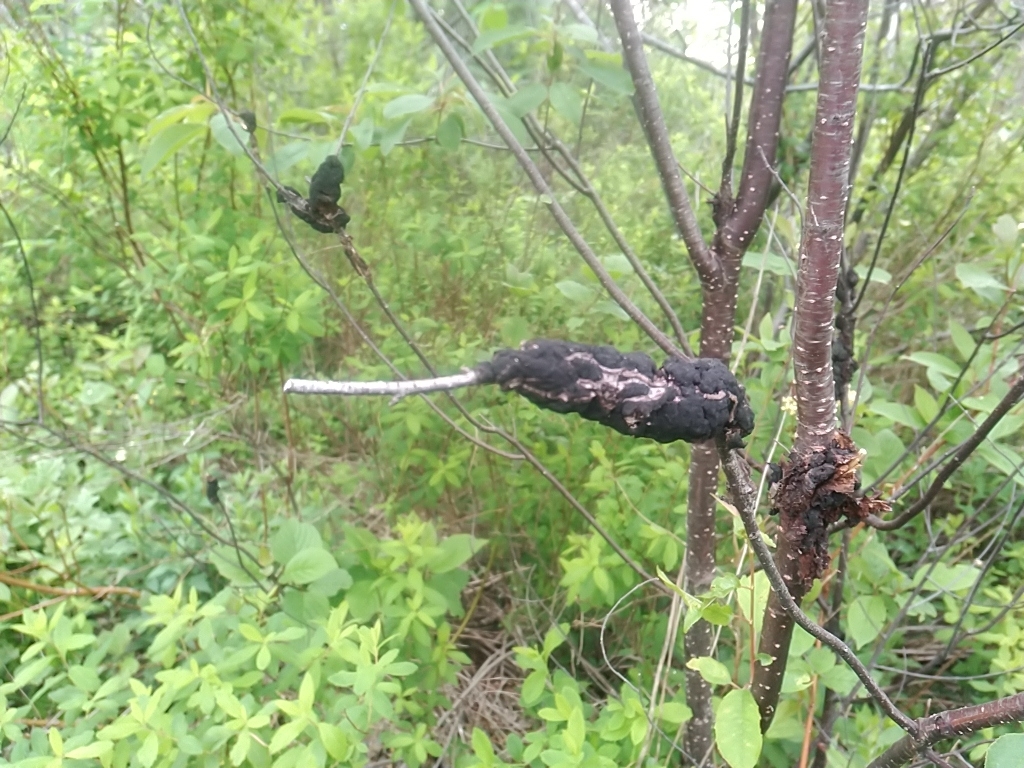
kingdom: Fungi
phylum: Ascomycota
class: Dothideomycetes
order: Venturiales
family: Venturiaceae
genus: Apiosporina
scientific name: Apiosporina morbosa
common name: Black knot
